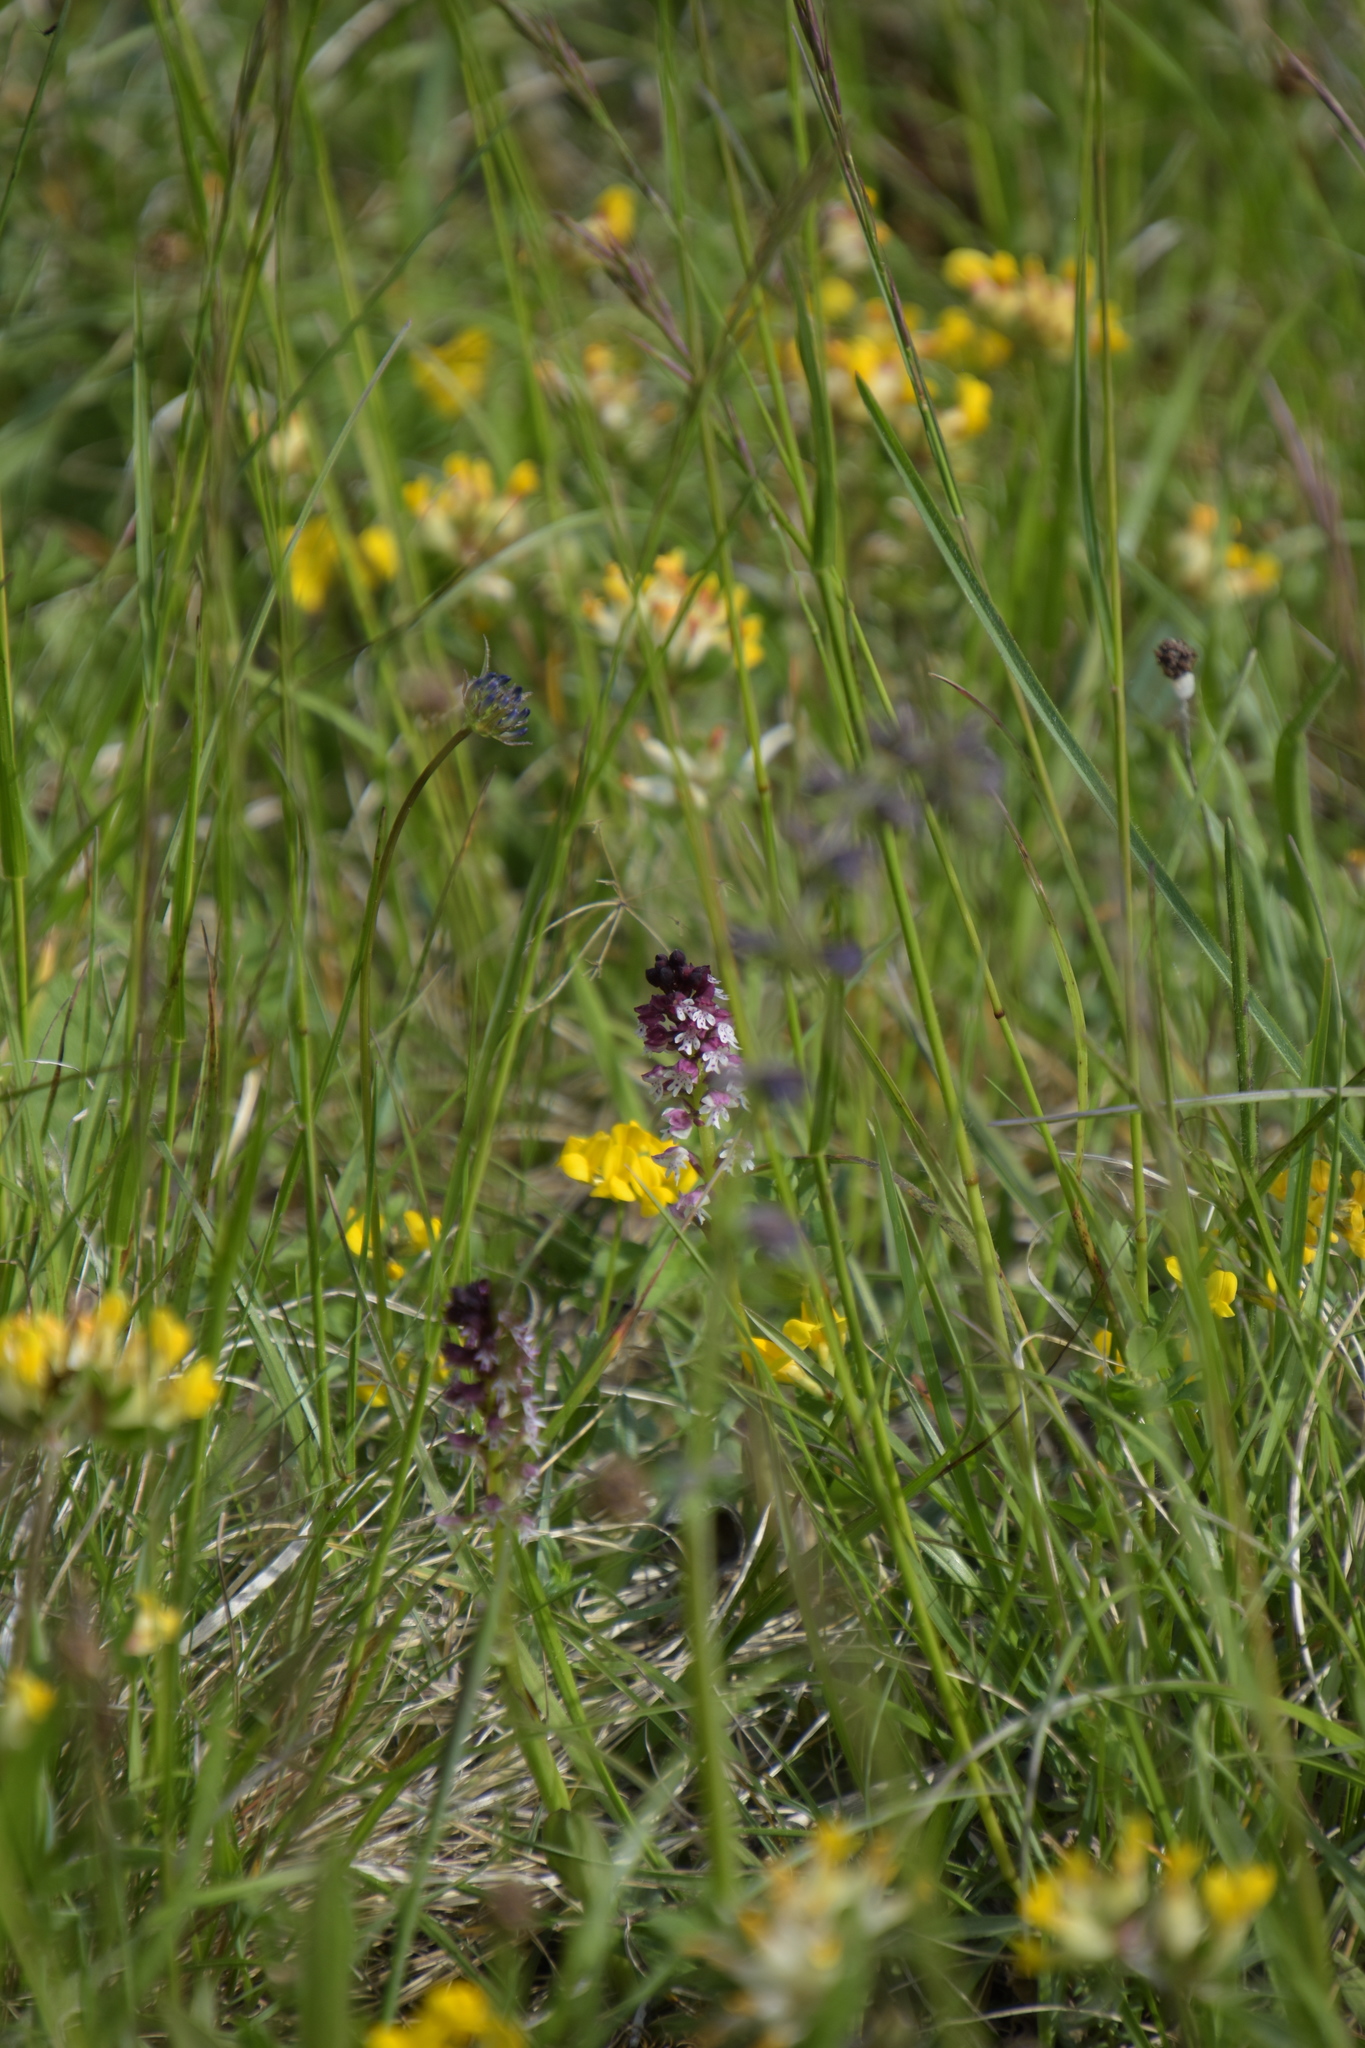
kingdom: Plantae
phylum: Tracheophyta
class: Liliopsida
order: Asparagales
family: Orchidaceae
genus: Neotinea
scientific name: Neotinea ustulata
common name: Burnt orchid
